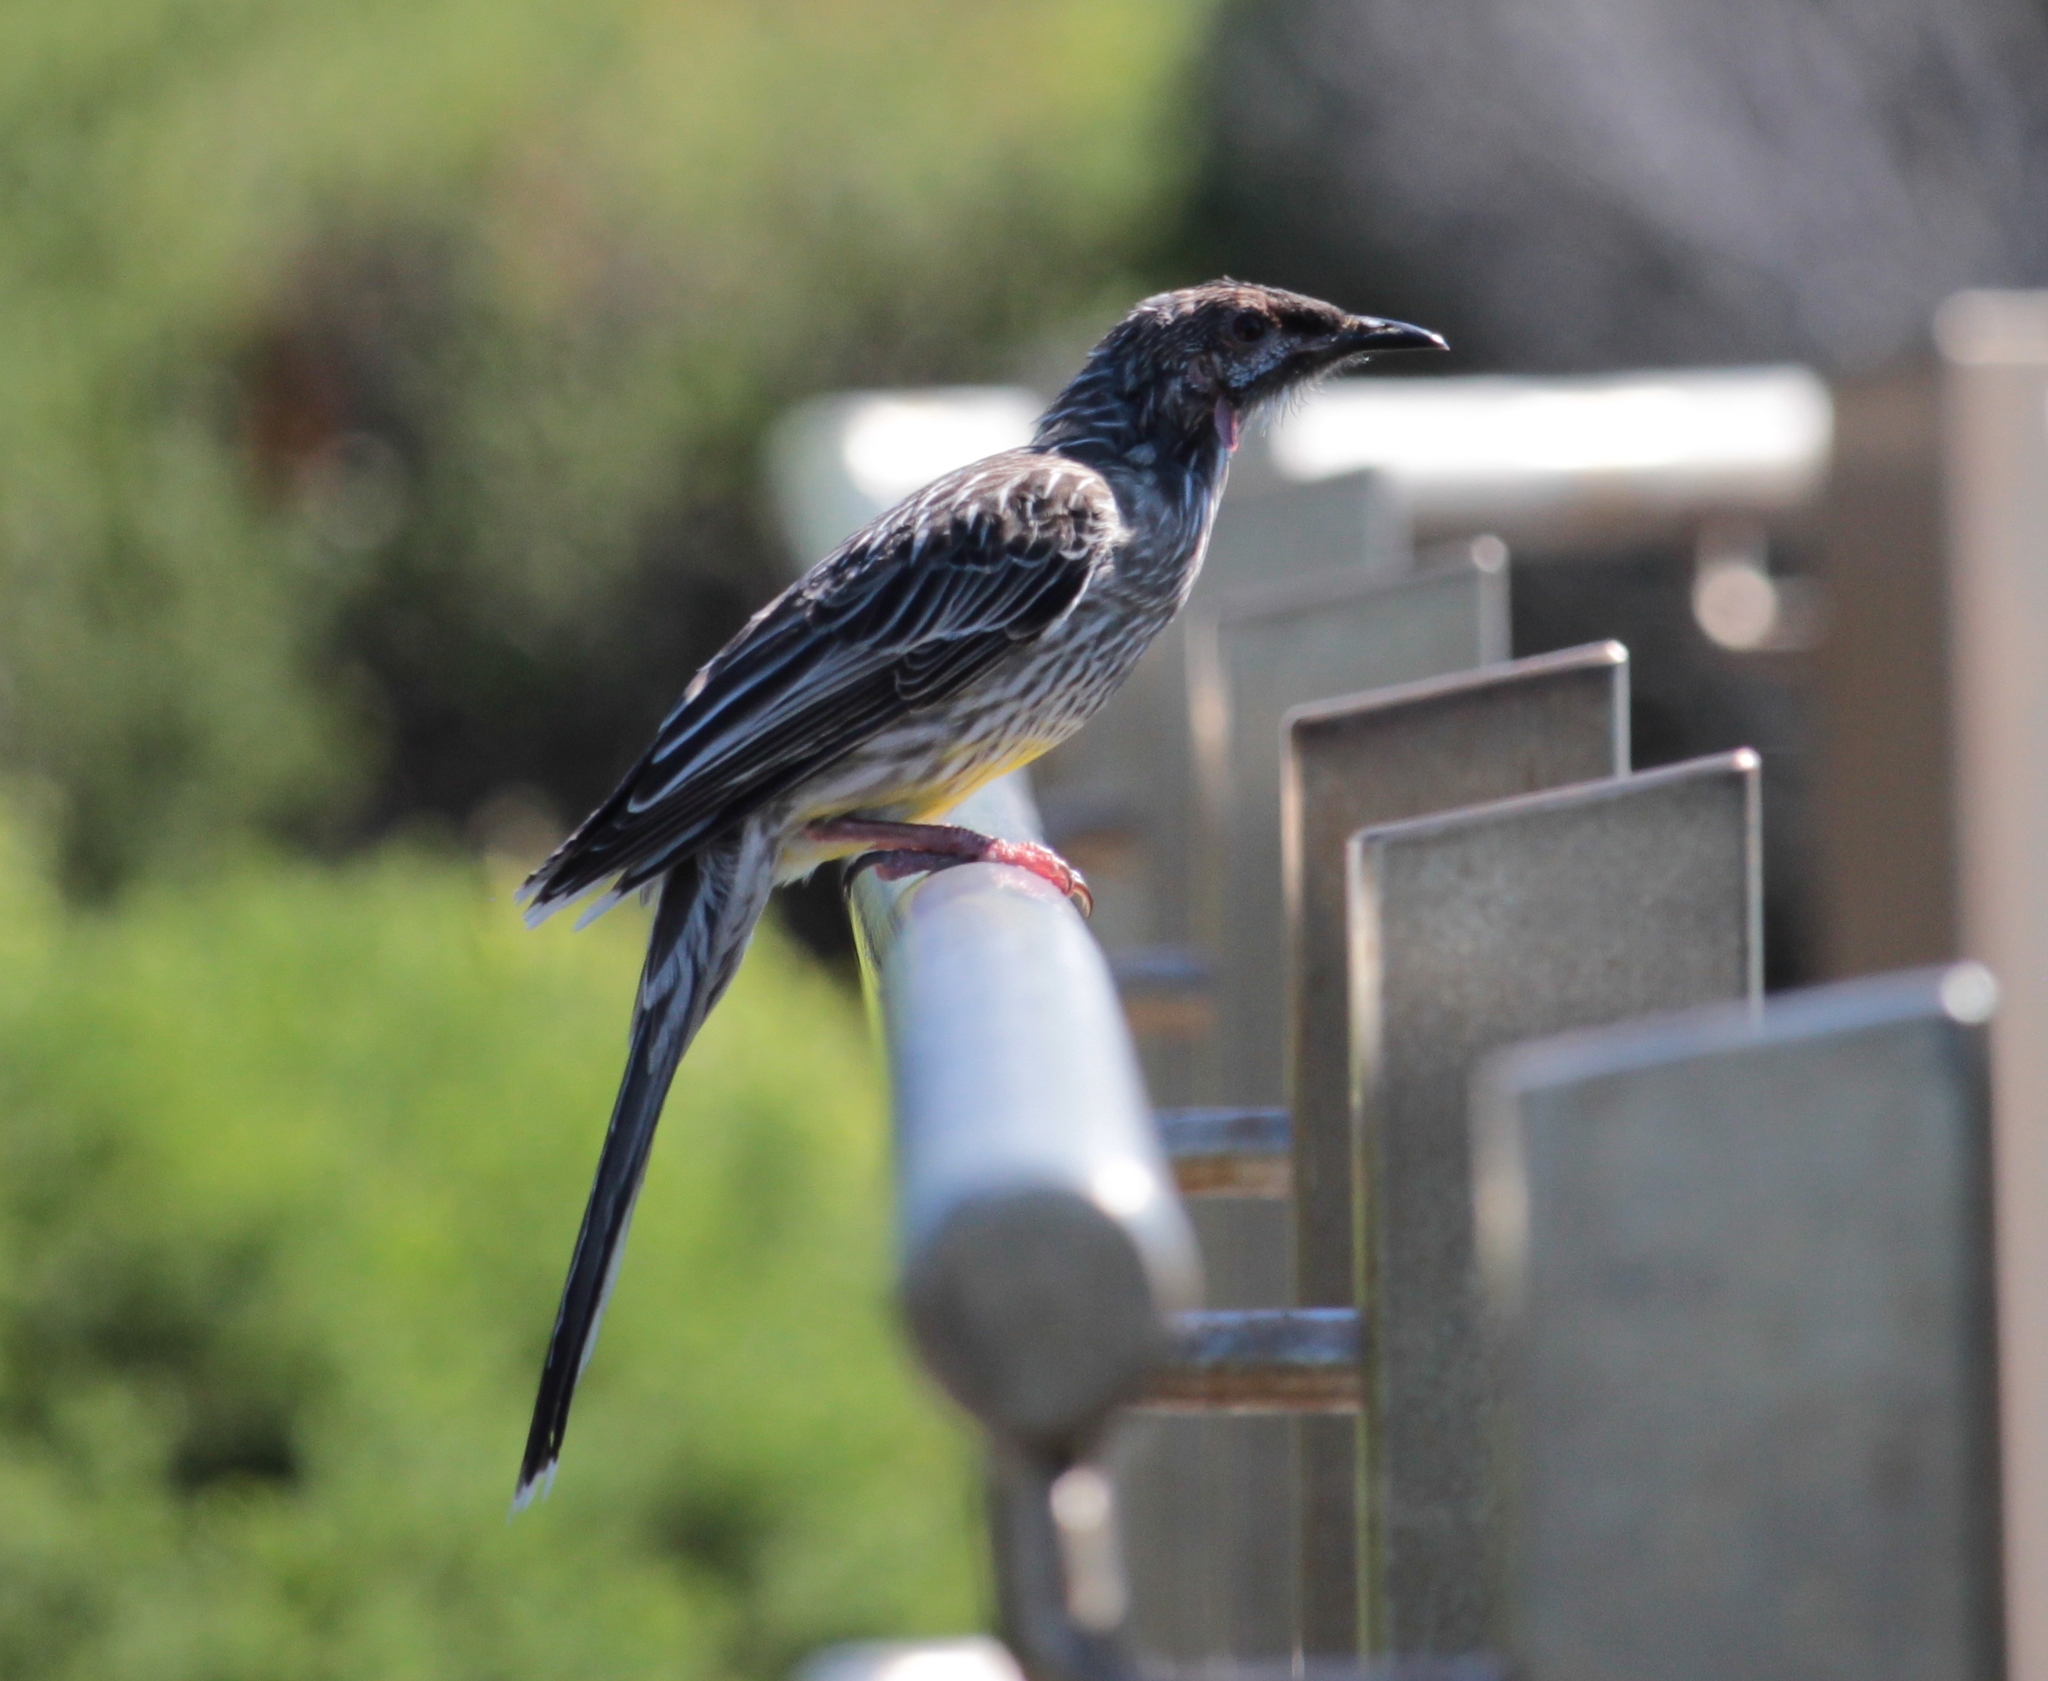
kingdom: Animalia
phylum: Chordata
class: Aves
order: Passeriformes
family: Meliphagidae
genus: Anthochaera
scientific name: Anthochaera carunculata
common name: Red wattlebird
